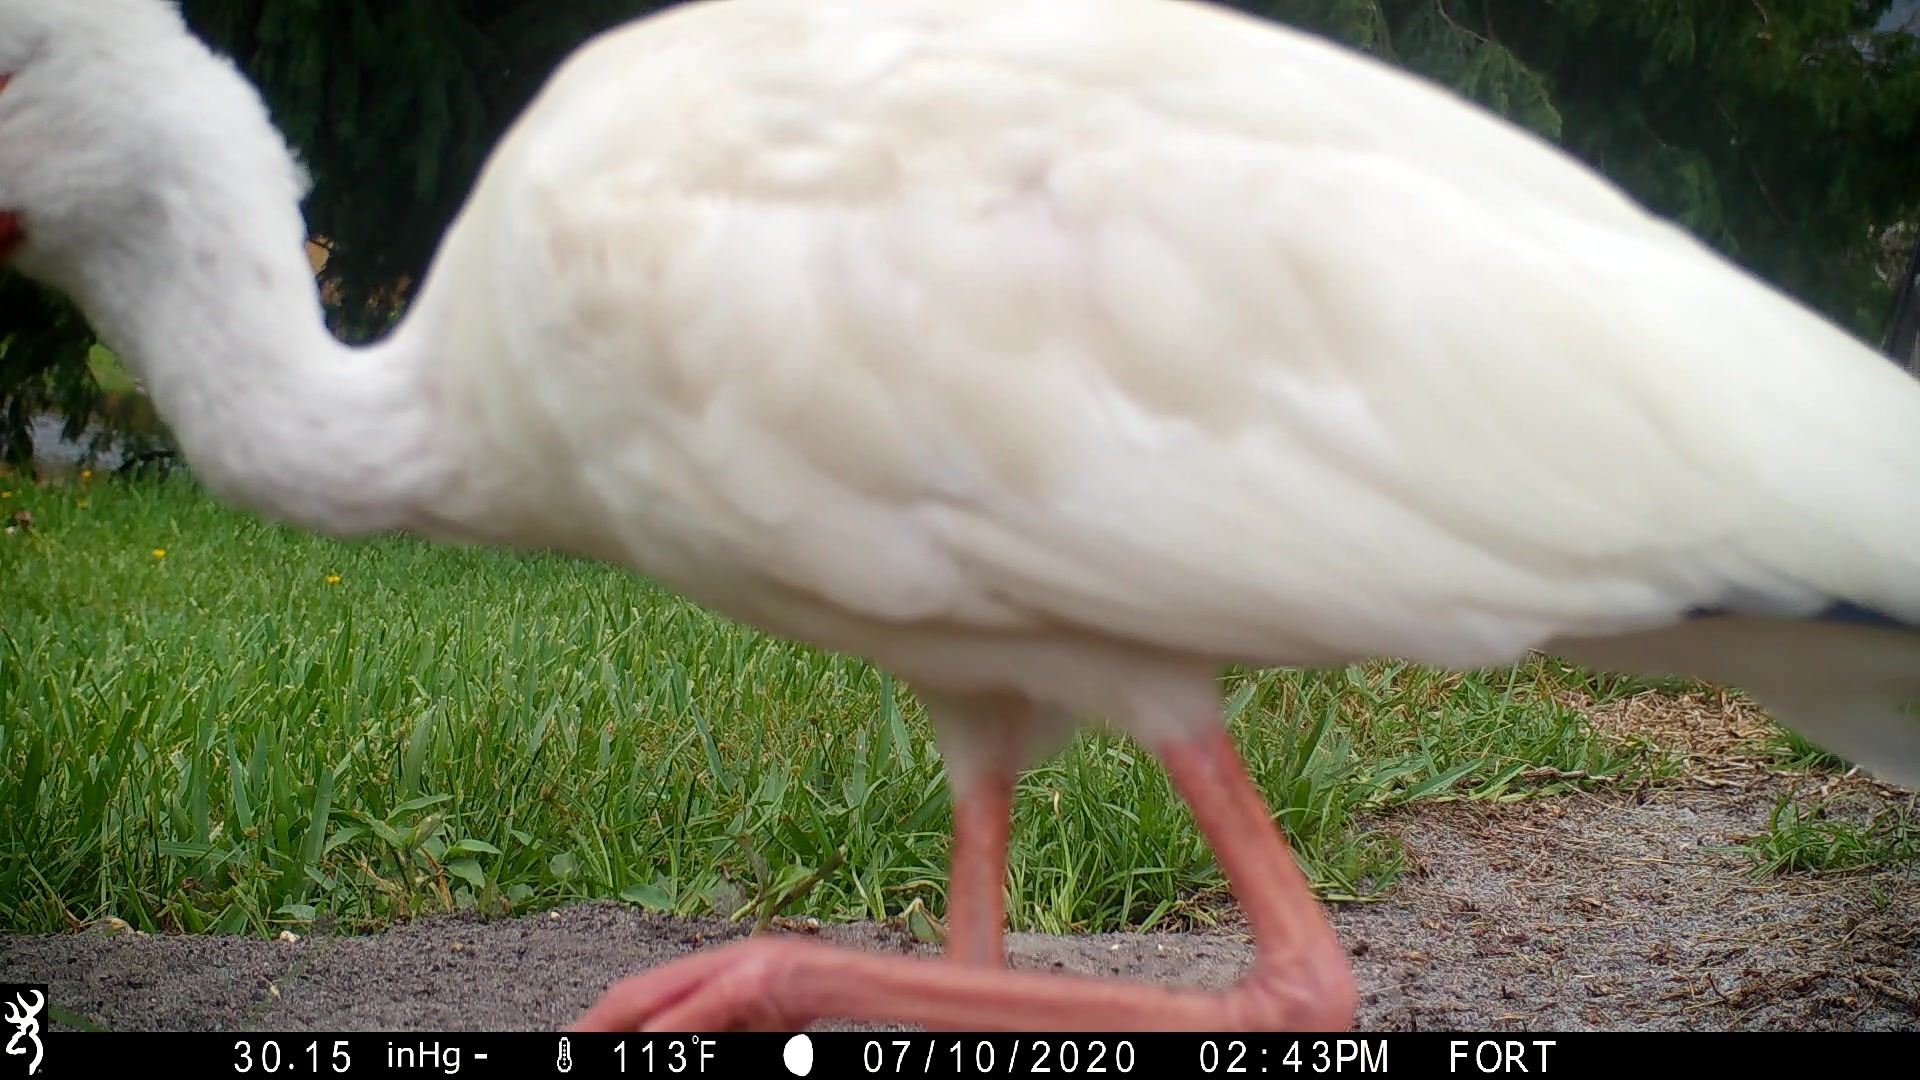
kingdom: Animalia
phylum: Chordata
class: Aves
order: Pelecaniformes
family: Threskiornithidae
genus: Eudocimus
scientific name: Eudocimus albus
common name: White ibis
